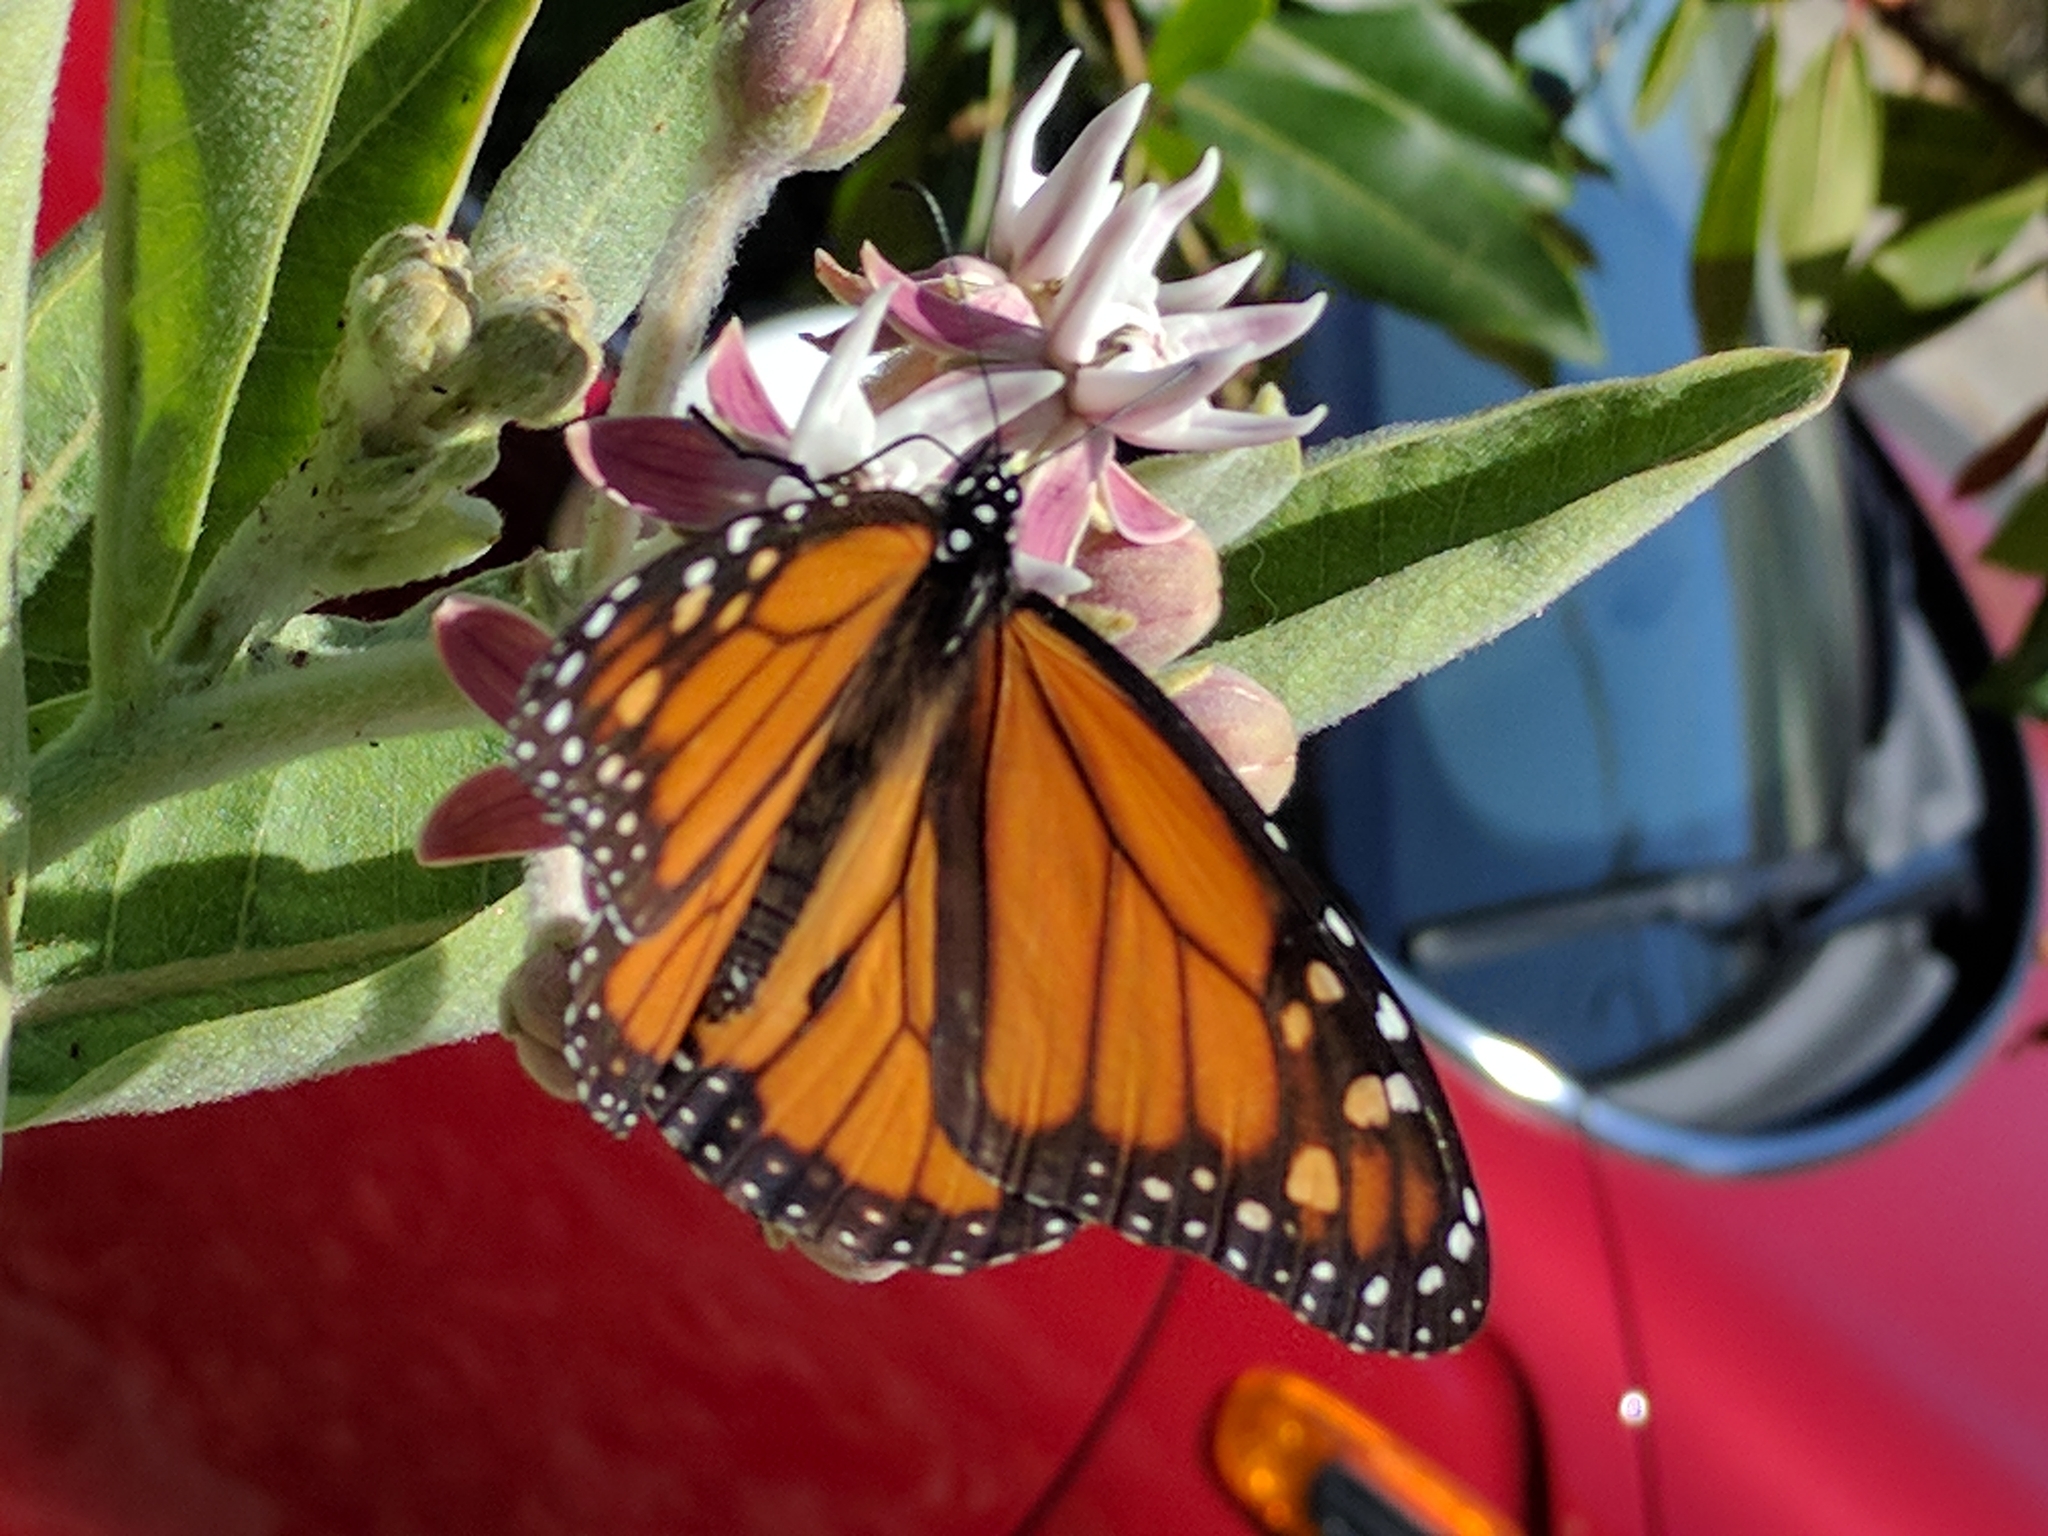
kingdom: Animalia
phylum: Arthropoda
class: Insecta
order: Lepidoptera
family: Nymphalidae
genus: Danaus
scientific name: Danaus plexippus
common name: Monarch
